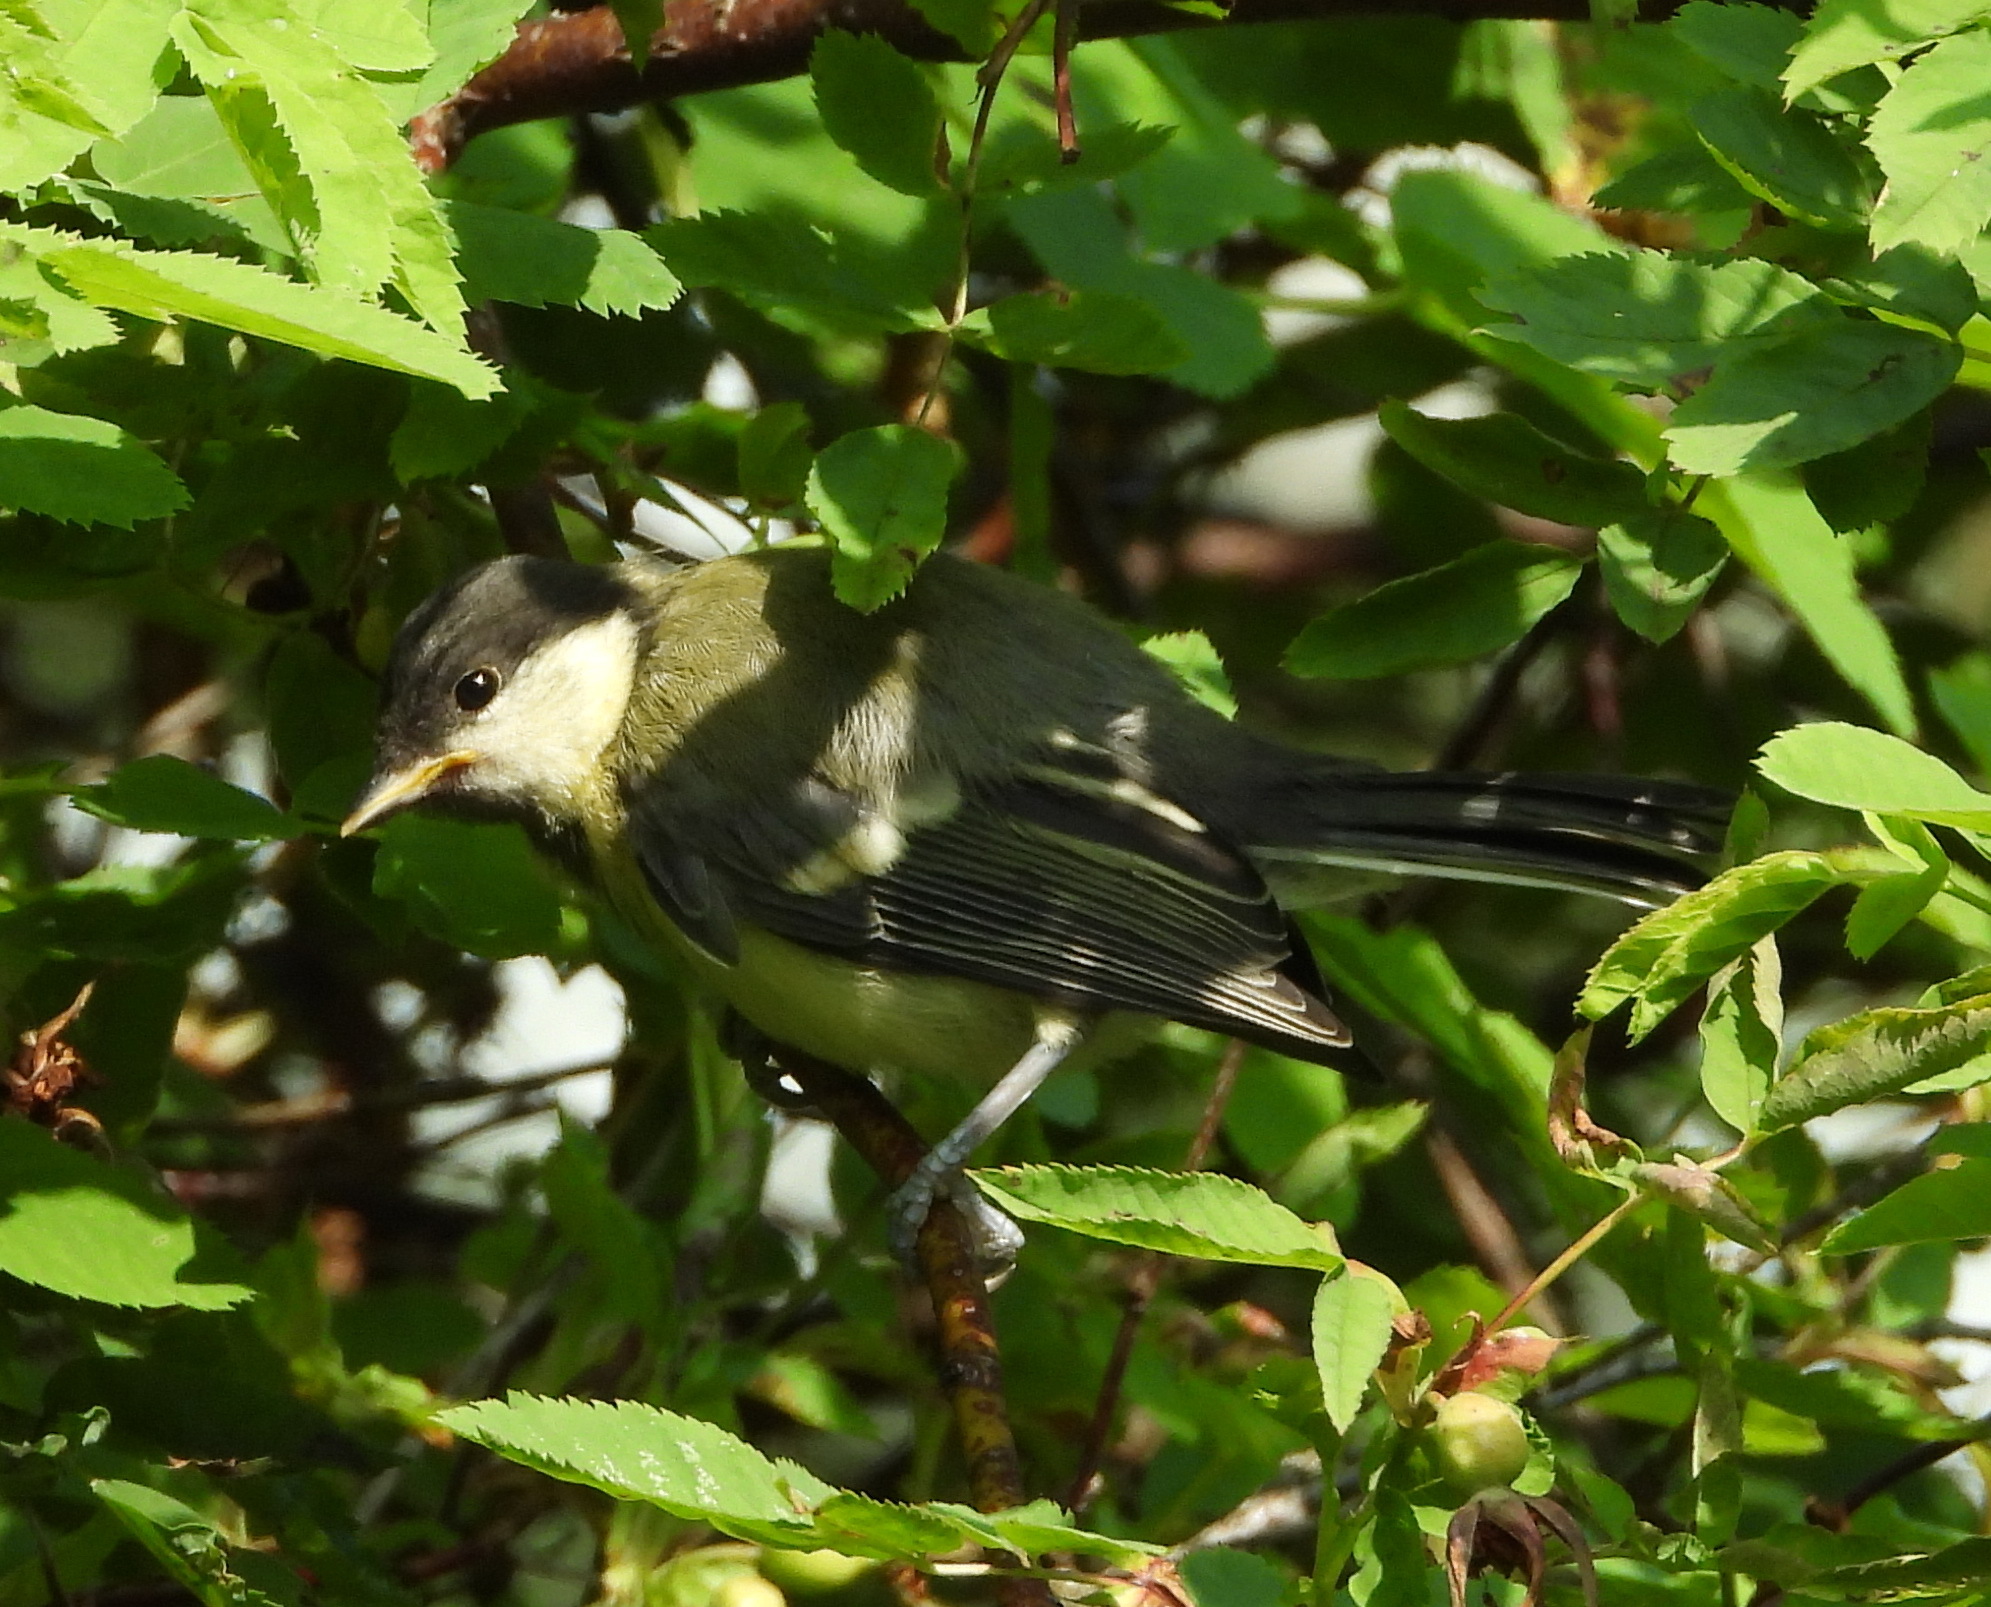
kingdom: Animalia
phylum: Chordata
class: Aves
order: Passeriformes
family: Paridae
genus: Parus
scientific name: Parus major
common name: Great tit
